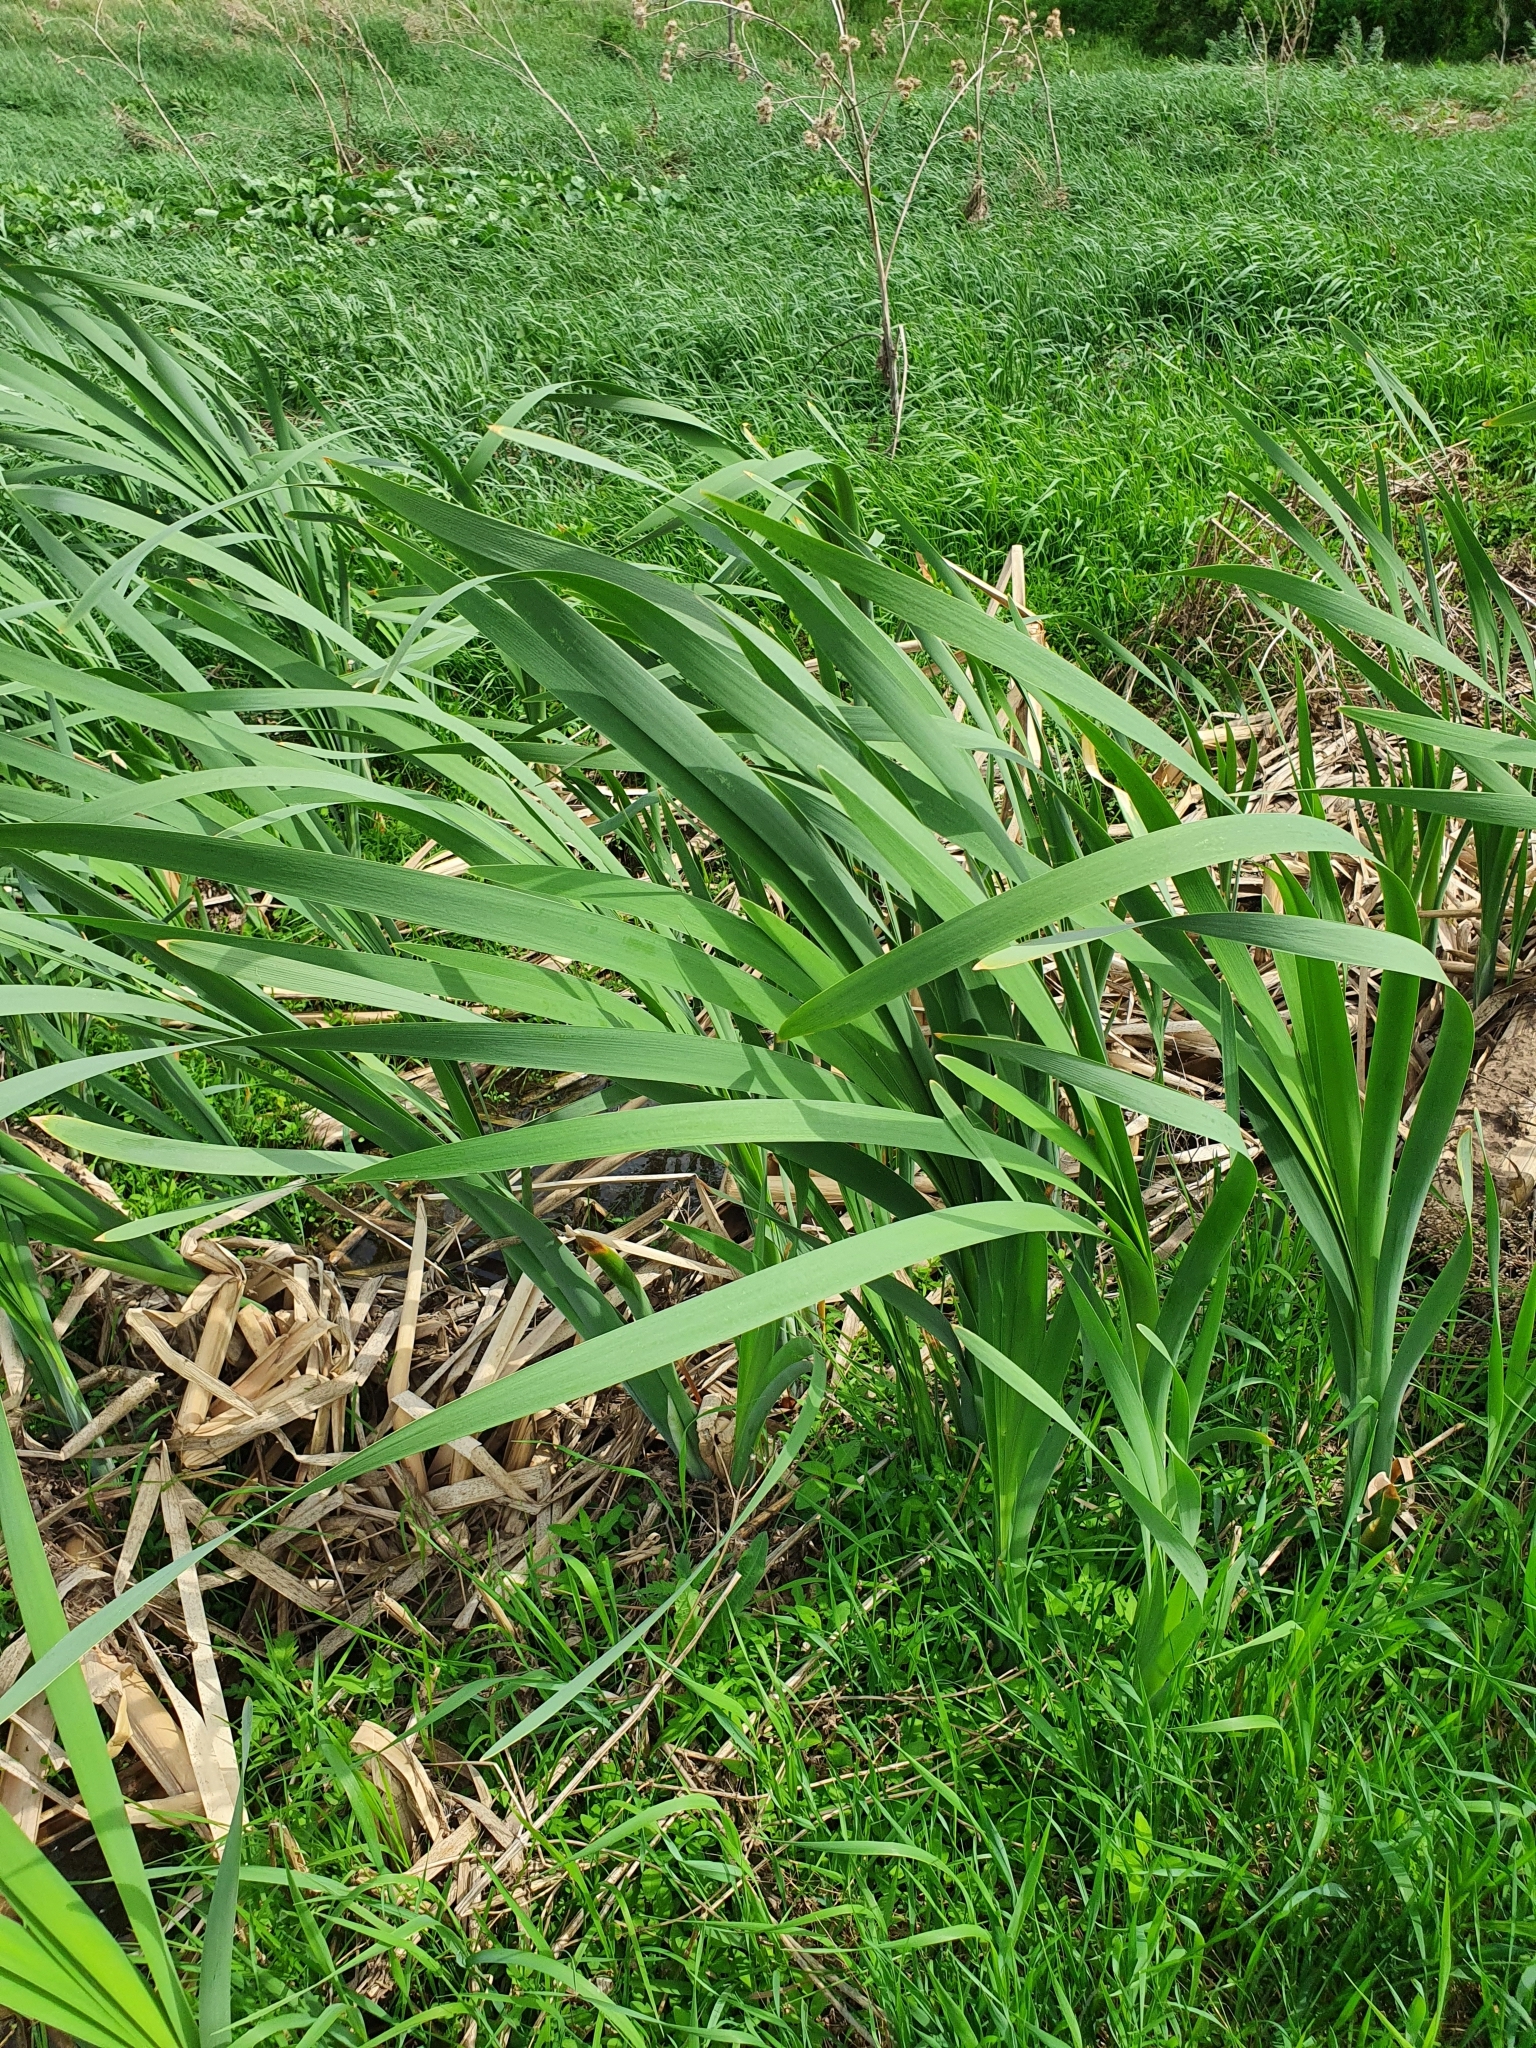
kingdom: Plantae
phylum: Tracheophyta
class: Liliopsida
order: Poales
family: Typhaceae
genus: Typha
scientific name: Typha latifolia
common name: Broadleaf cattail
